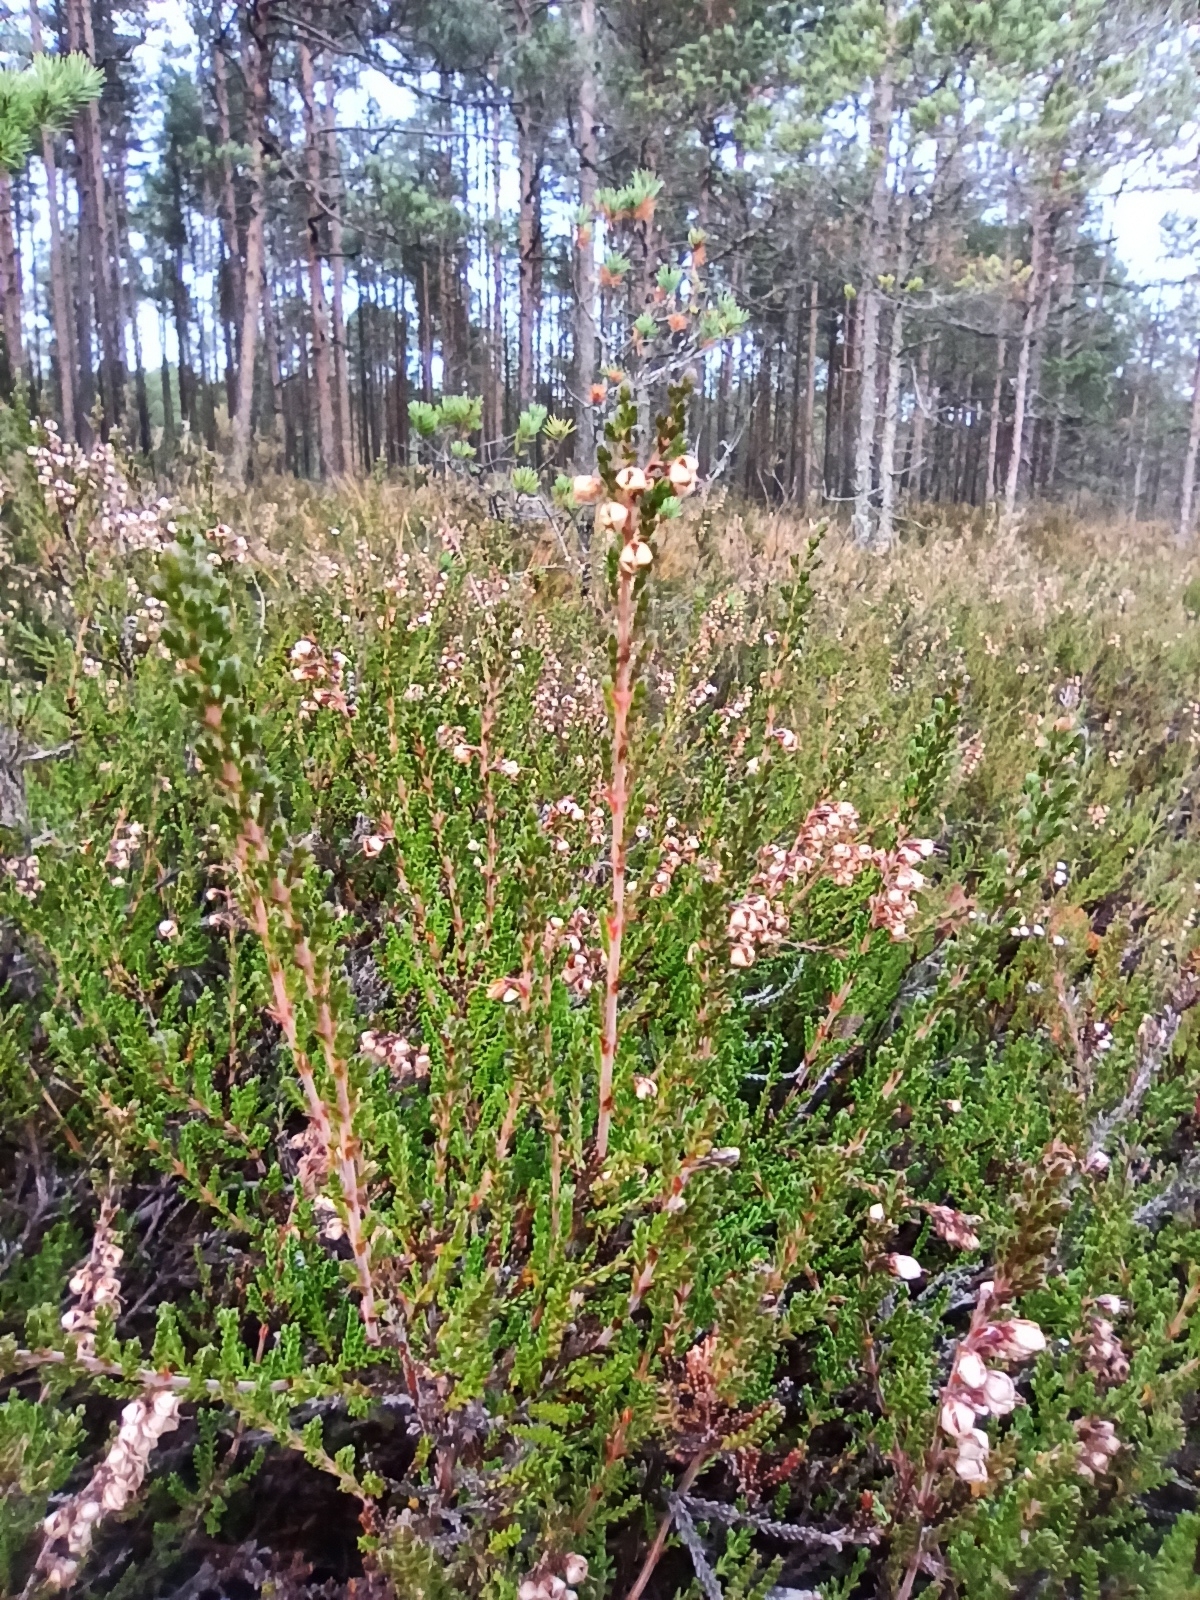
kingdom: Plantae
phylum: Tracheophyta
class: Magnoliopsida
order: Ericales
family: Ericaceae
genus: Calluna
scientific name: Calluna vulgaris
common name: Heather
